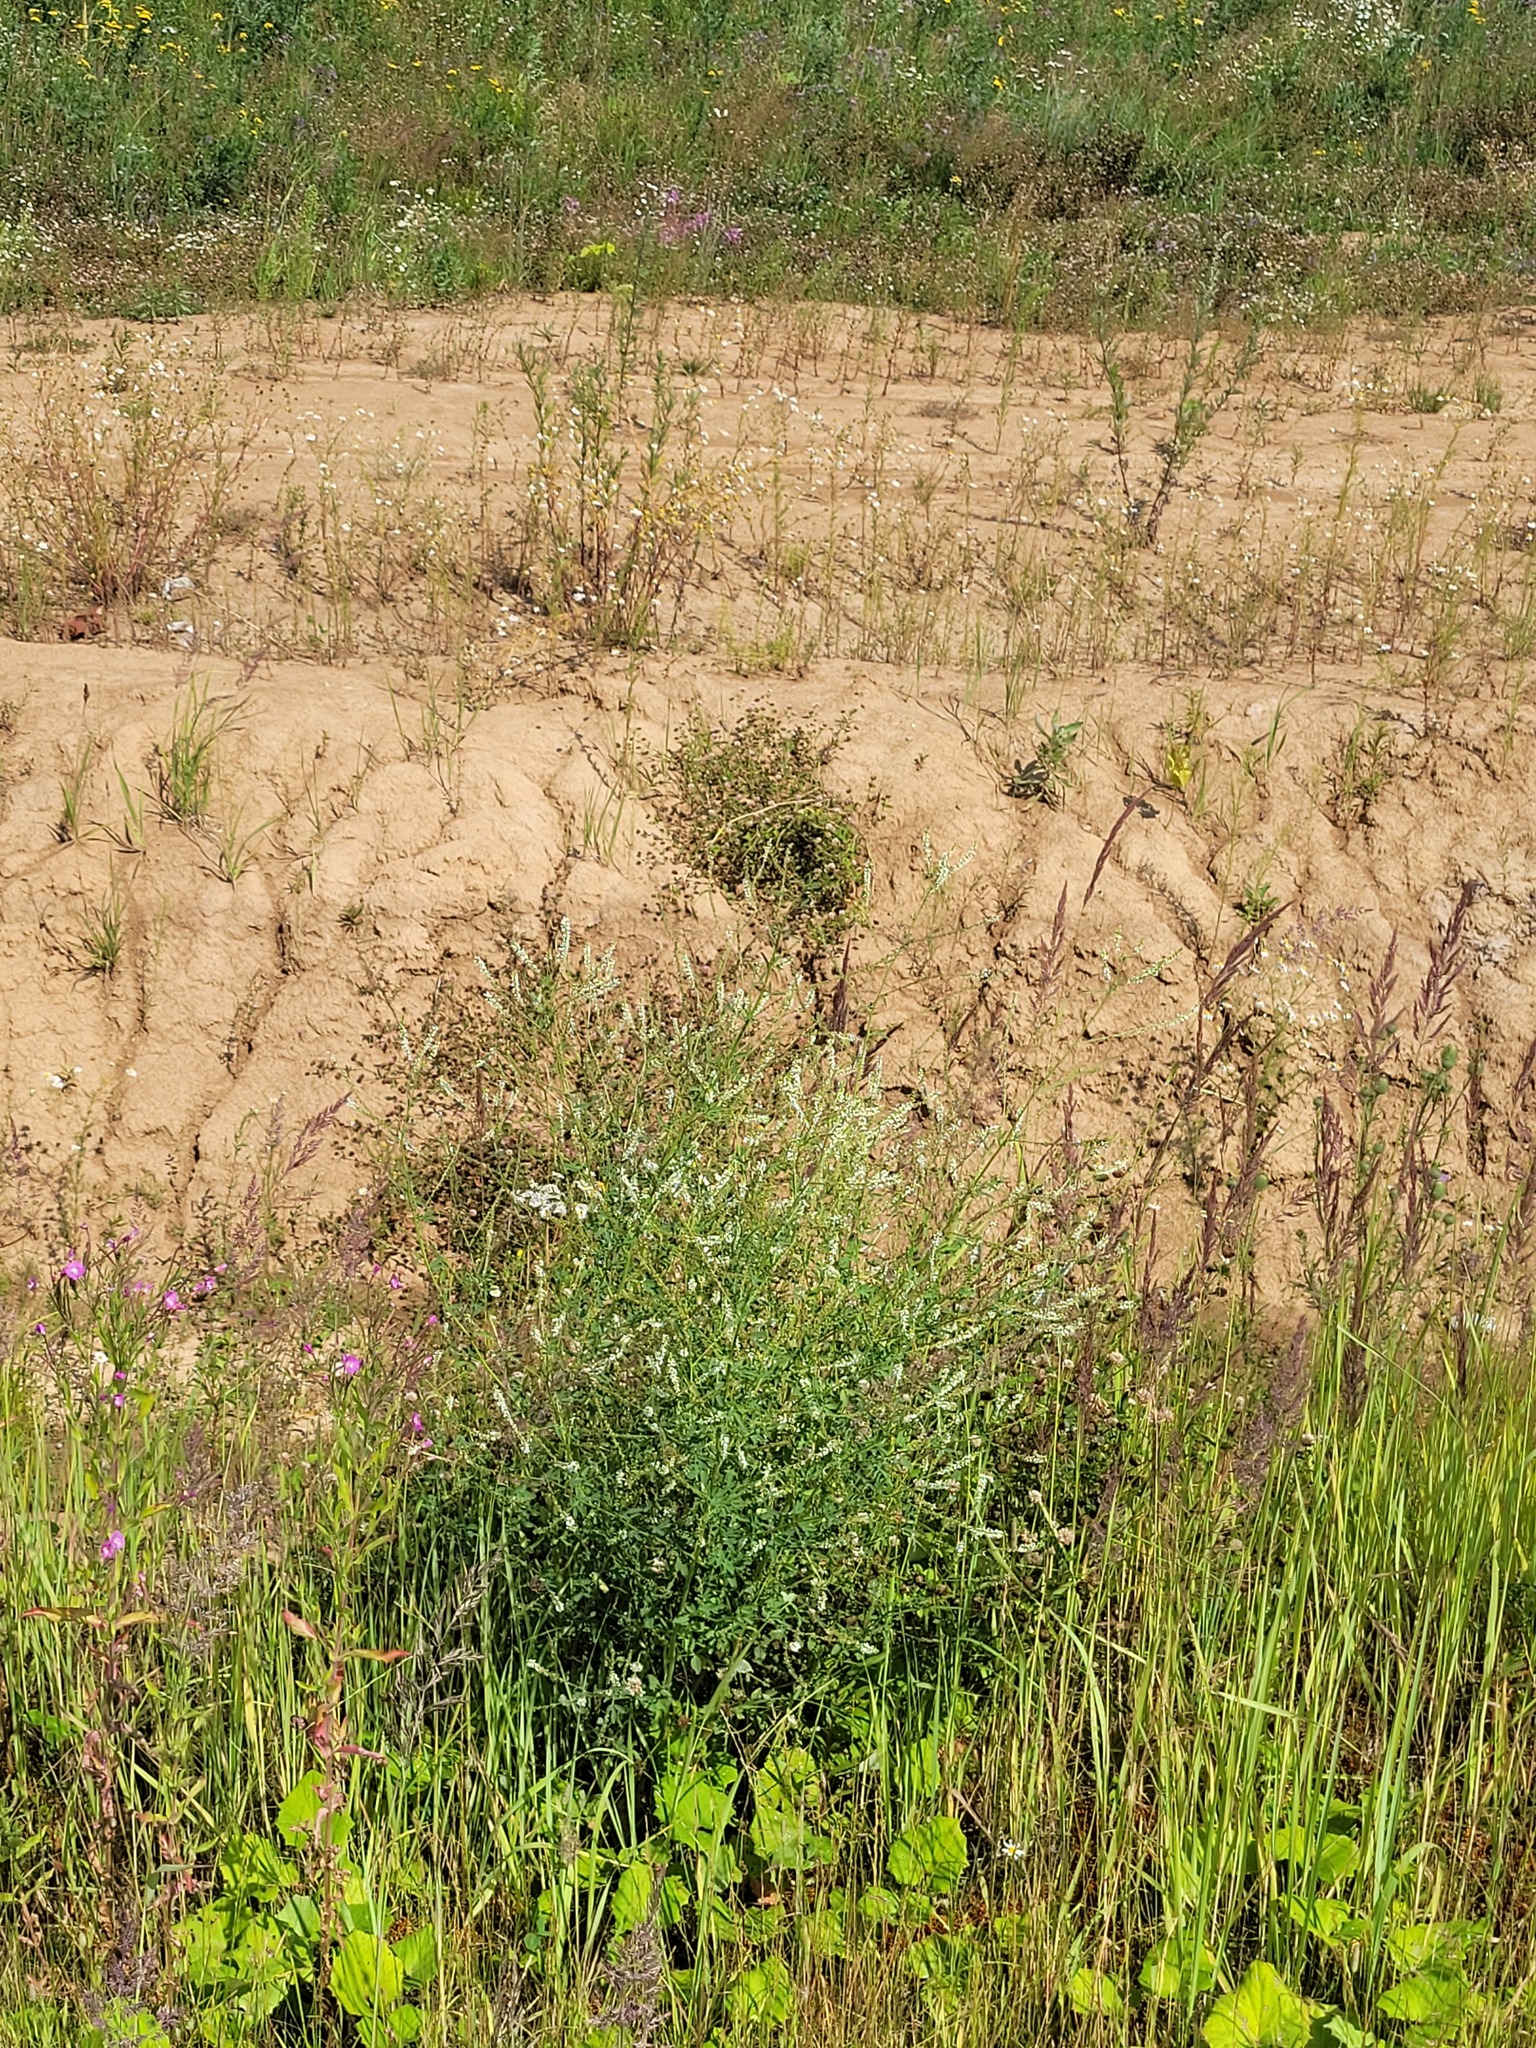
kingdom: Plantae
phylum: Tracheophyta
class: Magnoliopsida
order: Fabales
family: Fabaceae
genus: Melilotus
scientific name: Melilotus albus
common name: White melilot
